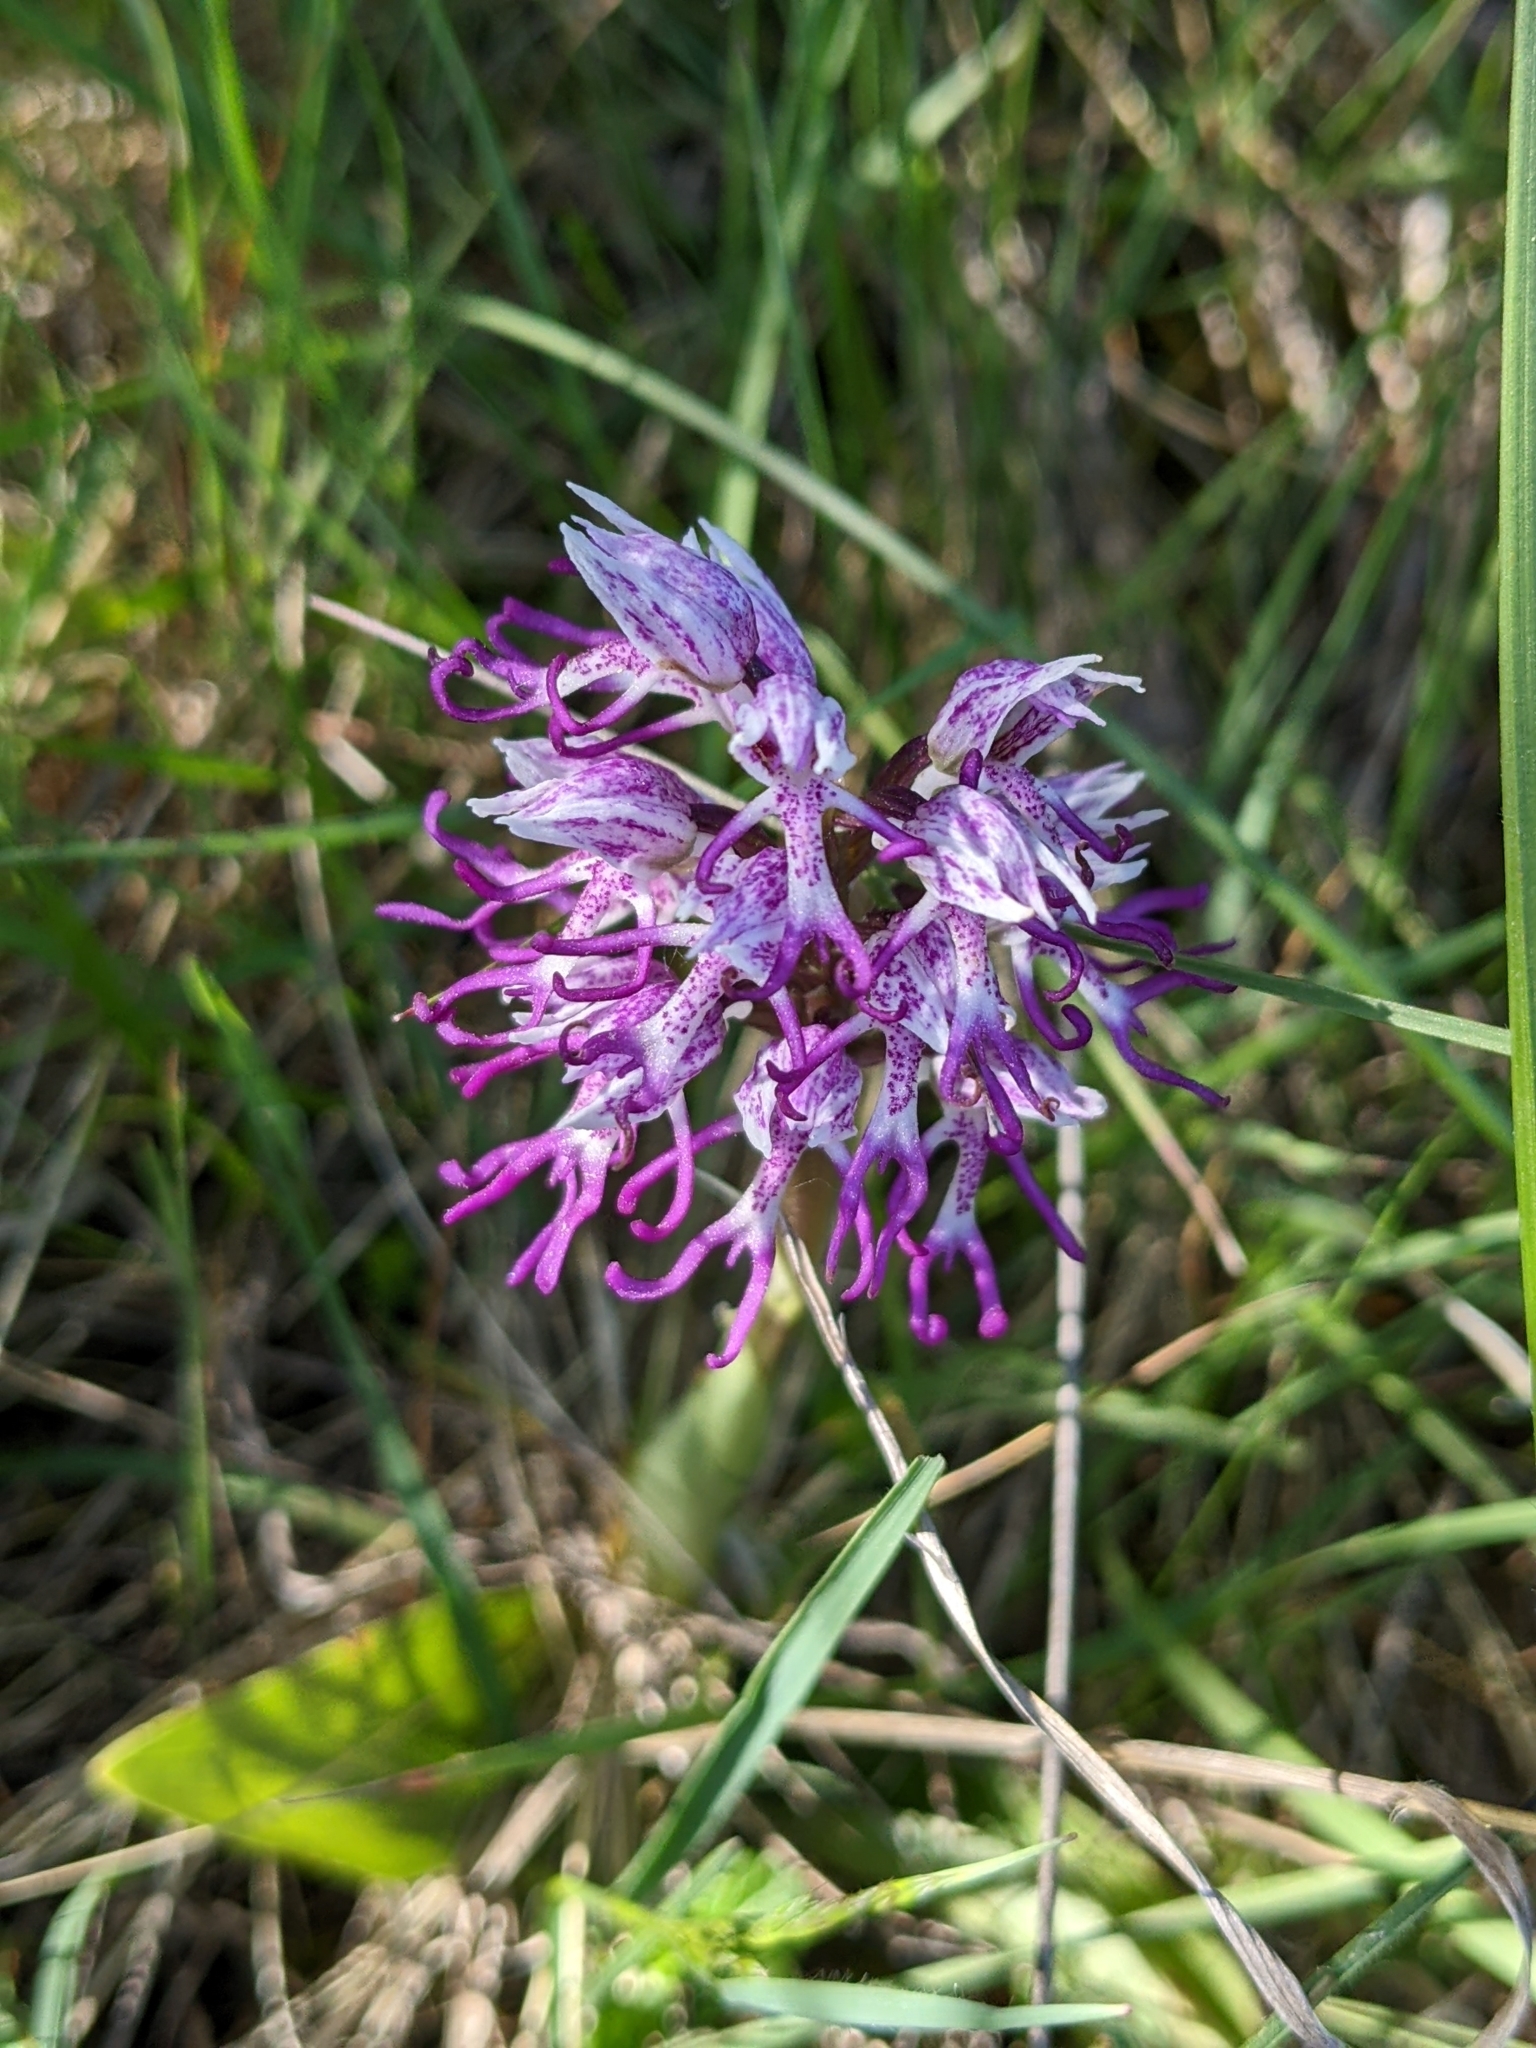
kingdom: Plantae
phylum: Tracheophyta
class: Liliopsida
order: Asparagales
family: Orchidaceae
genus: Orchis
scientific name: Orchis simia
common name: Monkey orchid
